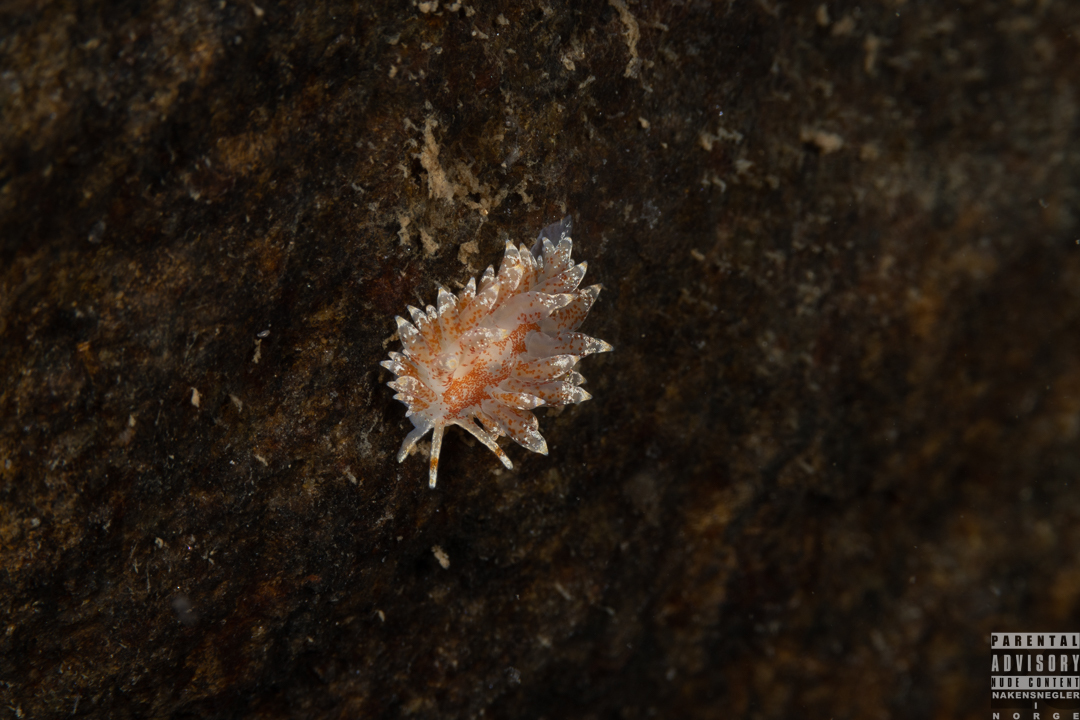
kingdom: Animalia
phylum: Mollusca
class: Gastropoda
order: Nudibranchia
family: Eubranchidae
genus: Amphorina
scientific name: Amphorina pallida
